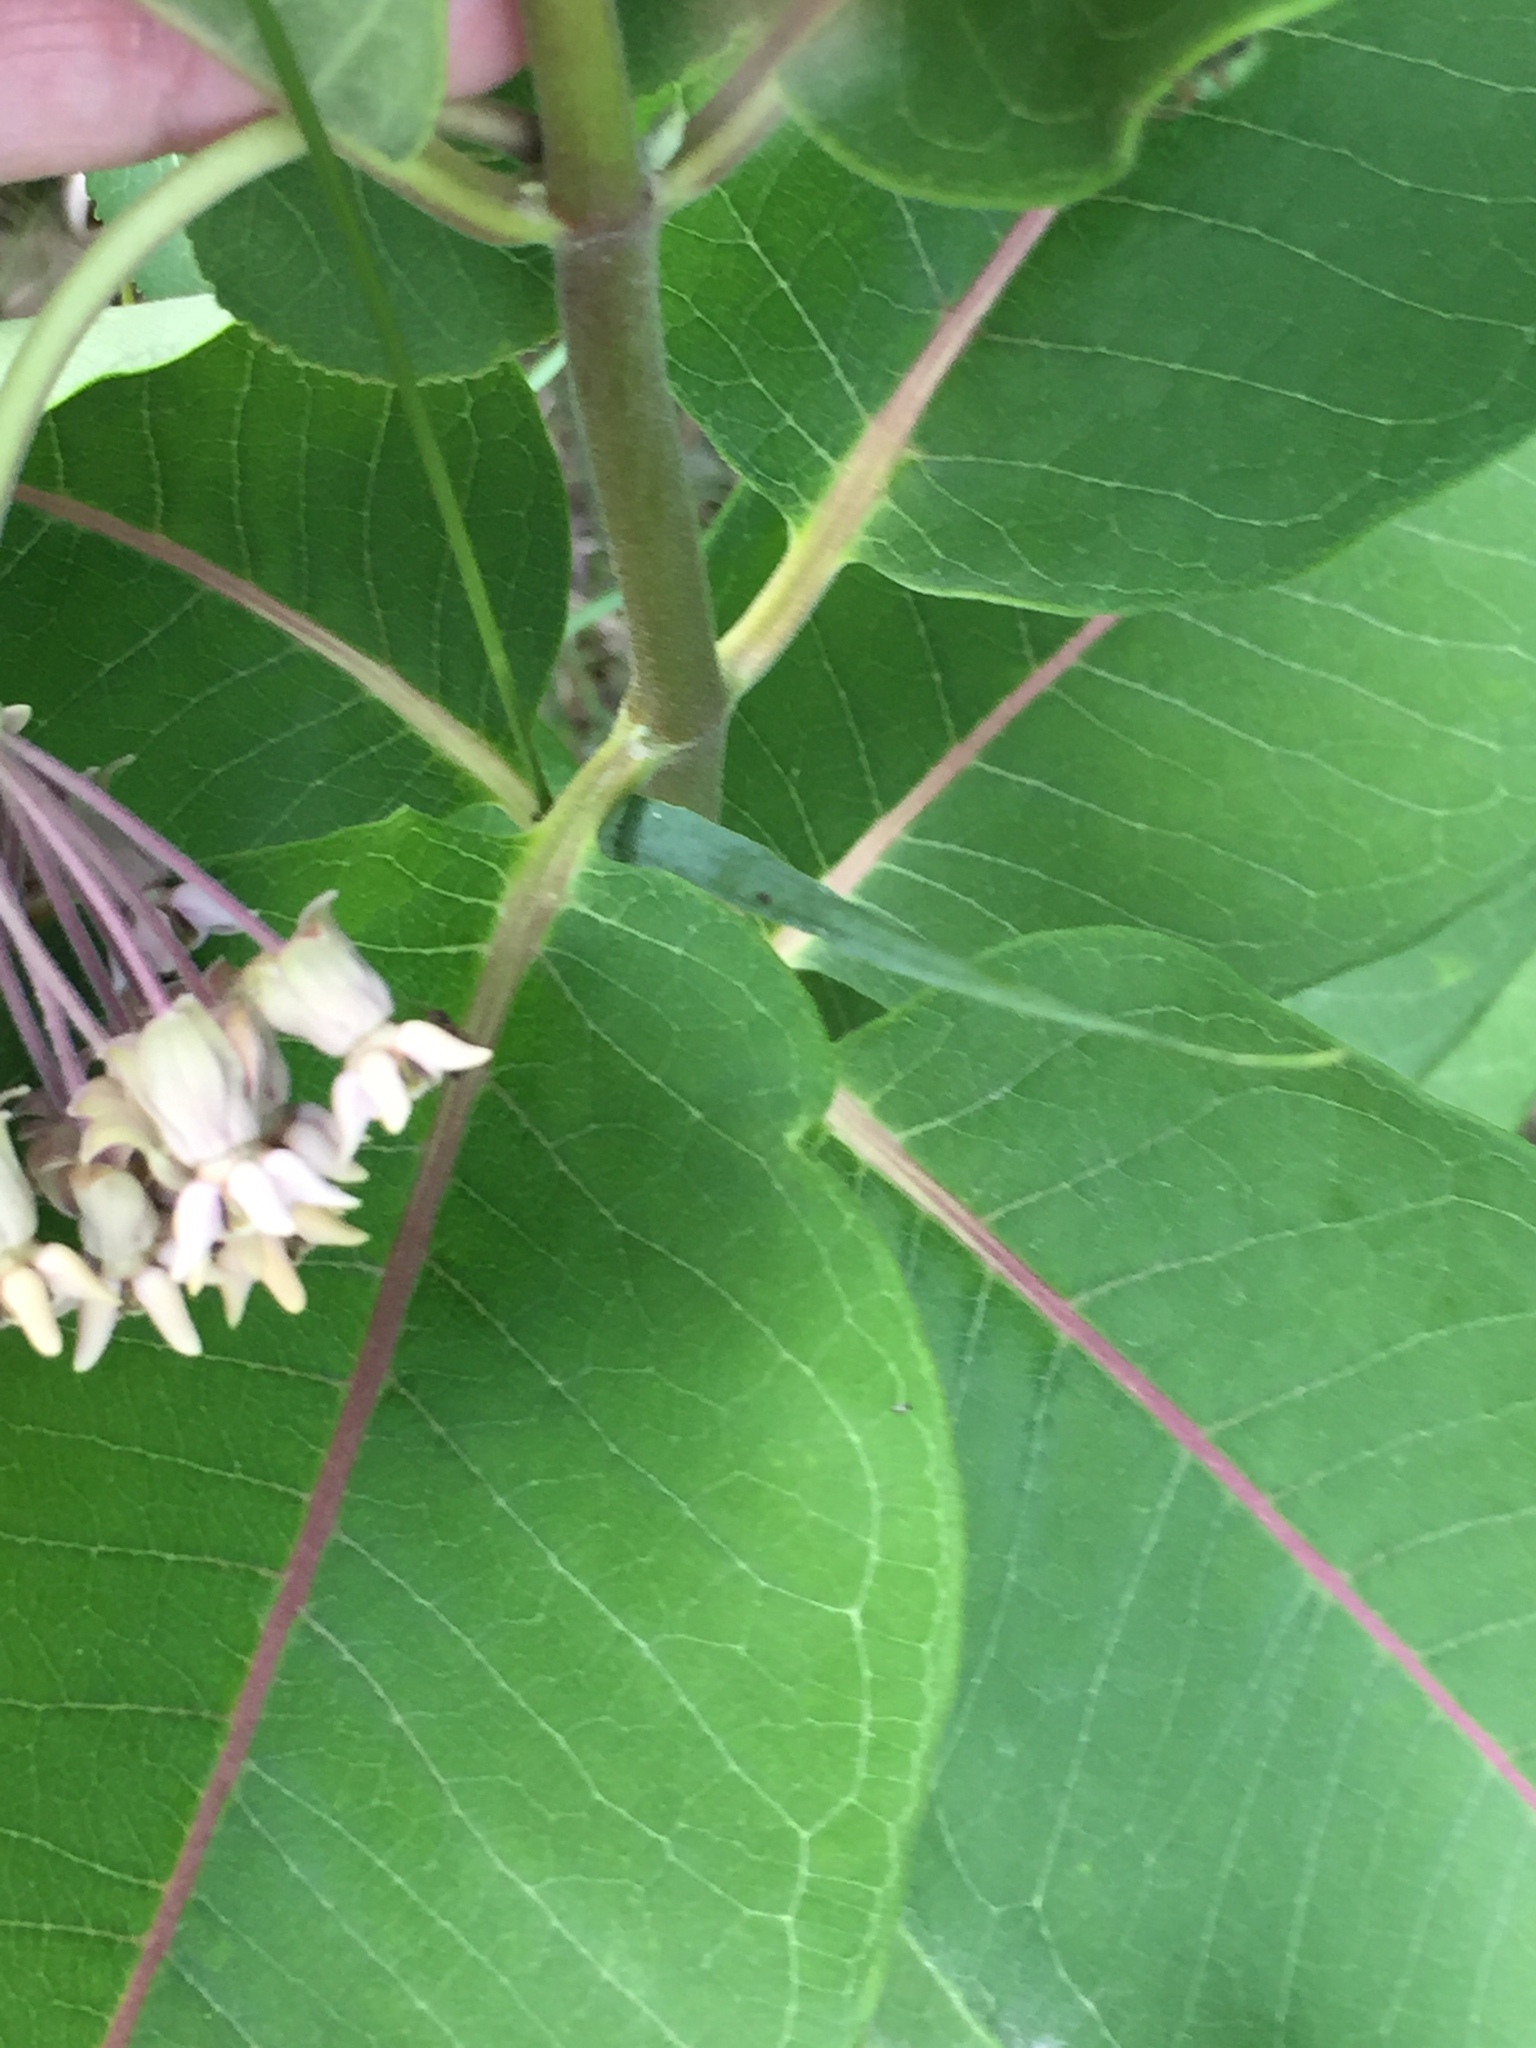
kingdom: Plantae
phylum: Tracheophyta
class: Magnoliopsida
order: Gentianales
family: Apocynaceae
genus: Asclepias
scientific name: Asclepias syriaca
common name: Common milkweed
